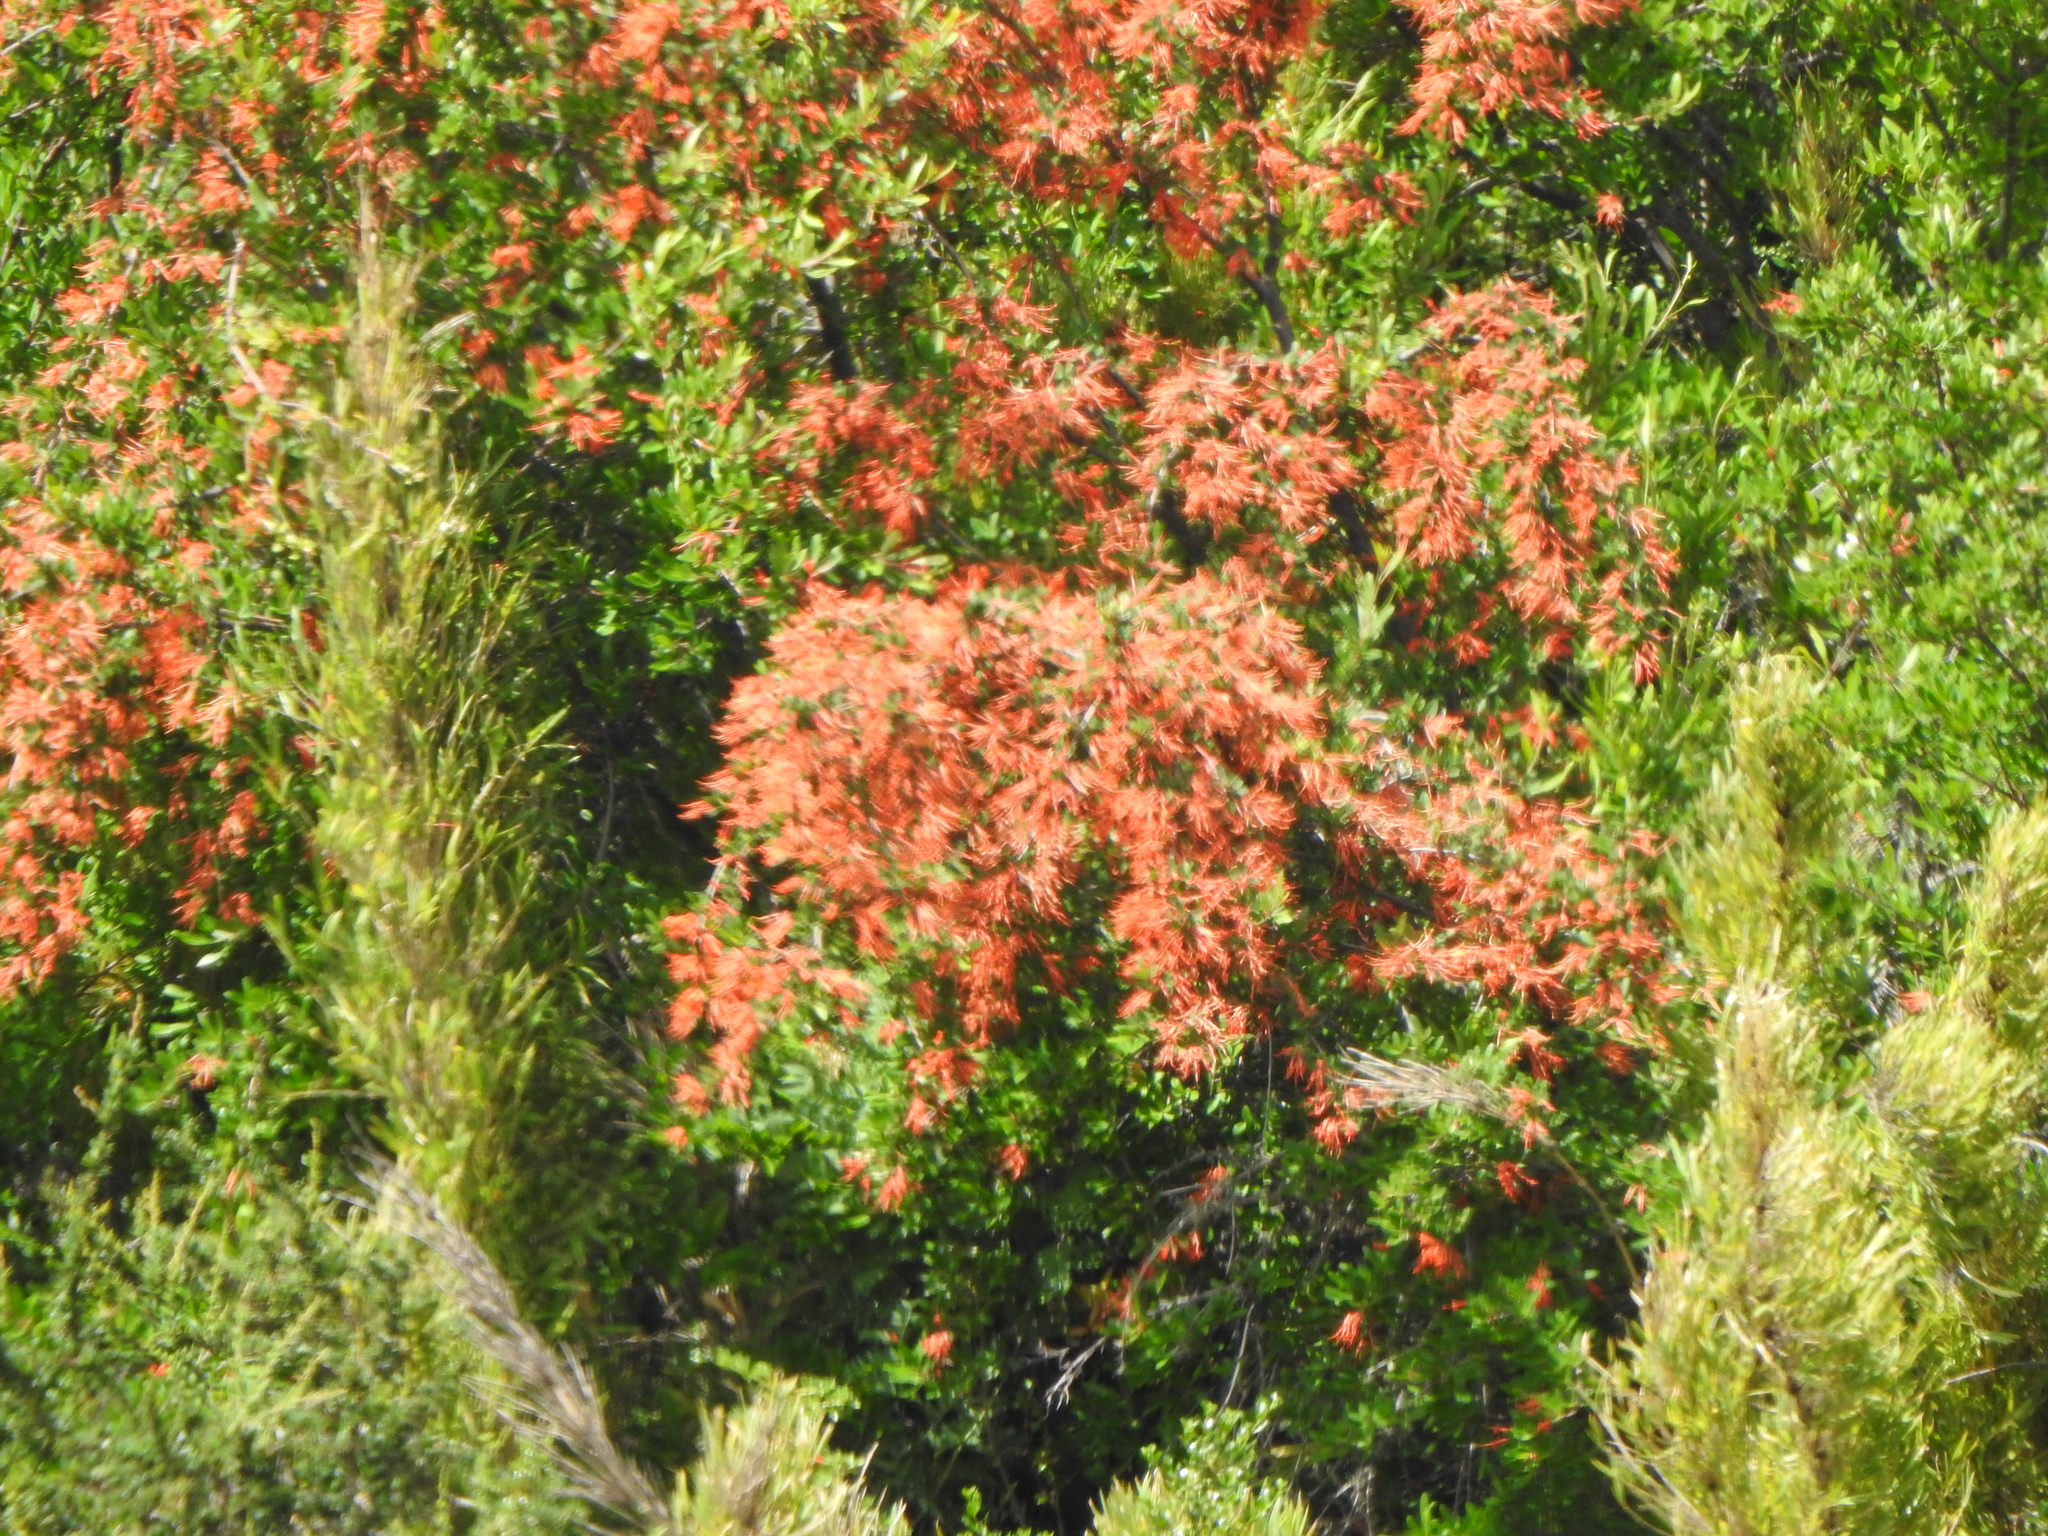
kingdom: Plantae
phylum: Tracheophyta
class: Magnoliopsida
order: Proteales
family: Proteaceae
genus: Embothrium
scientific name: Embothrium coccineum
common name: Chilean firebush
